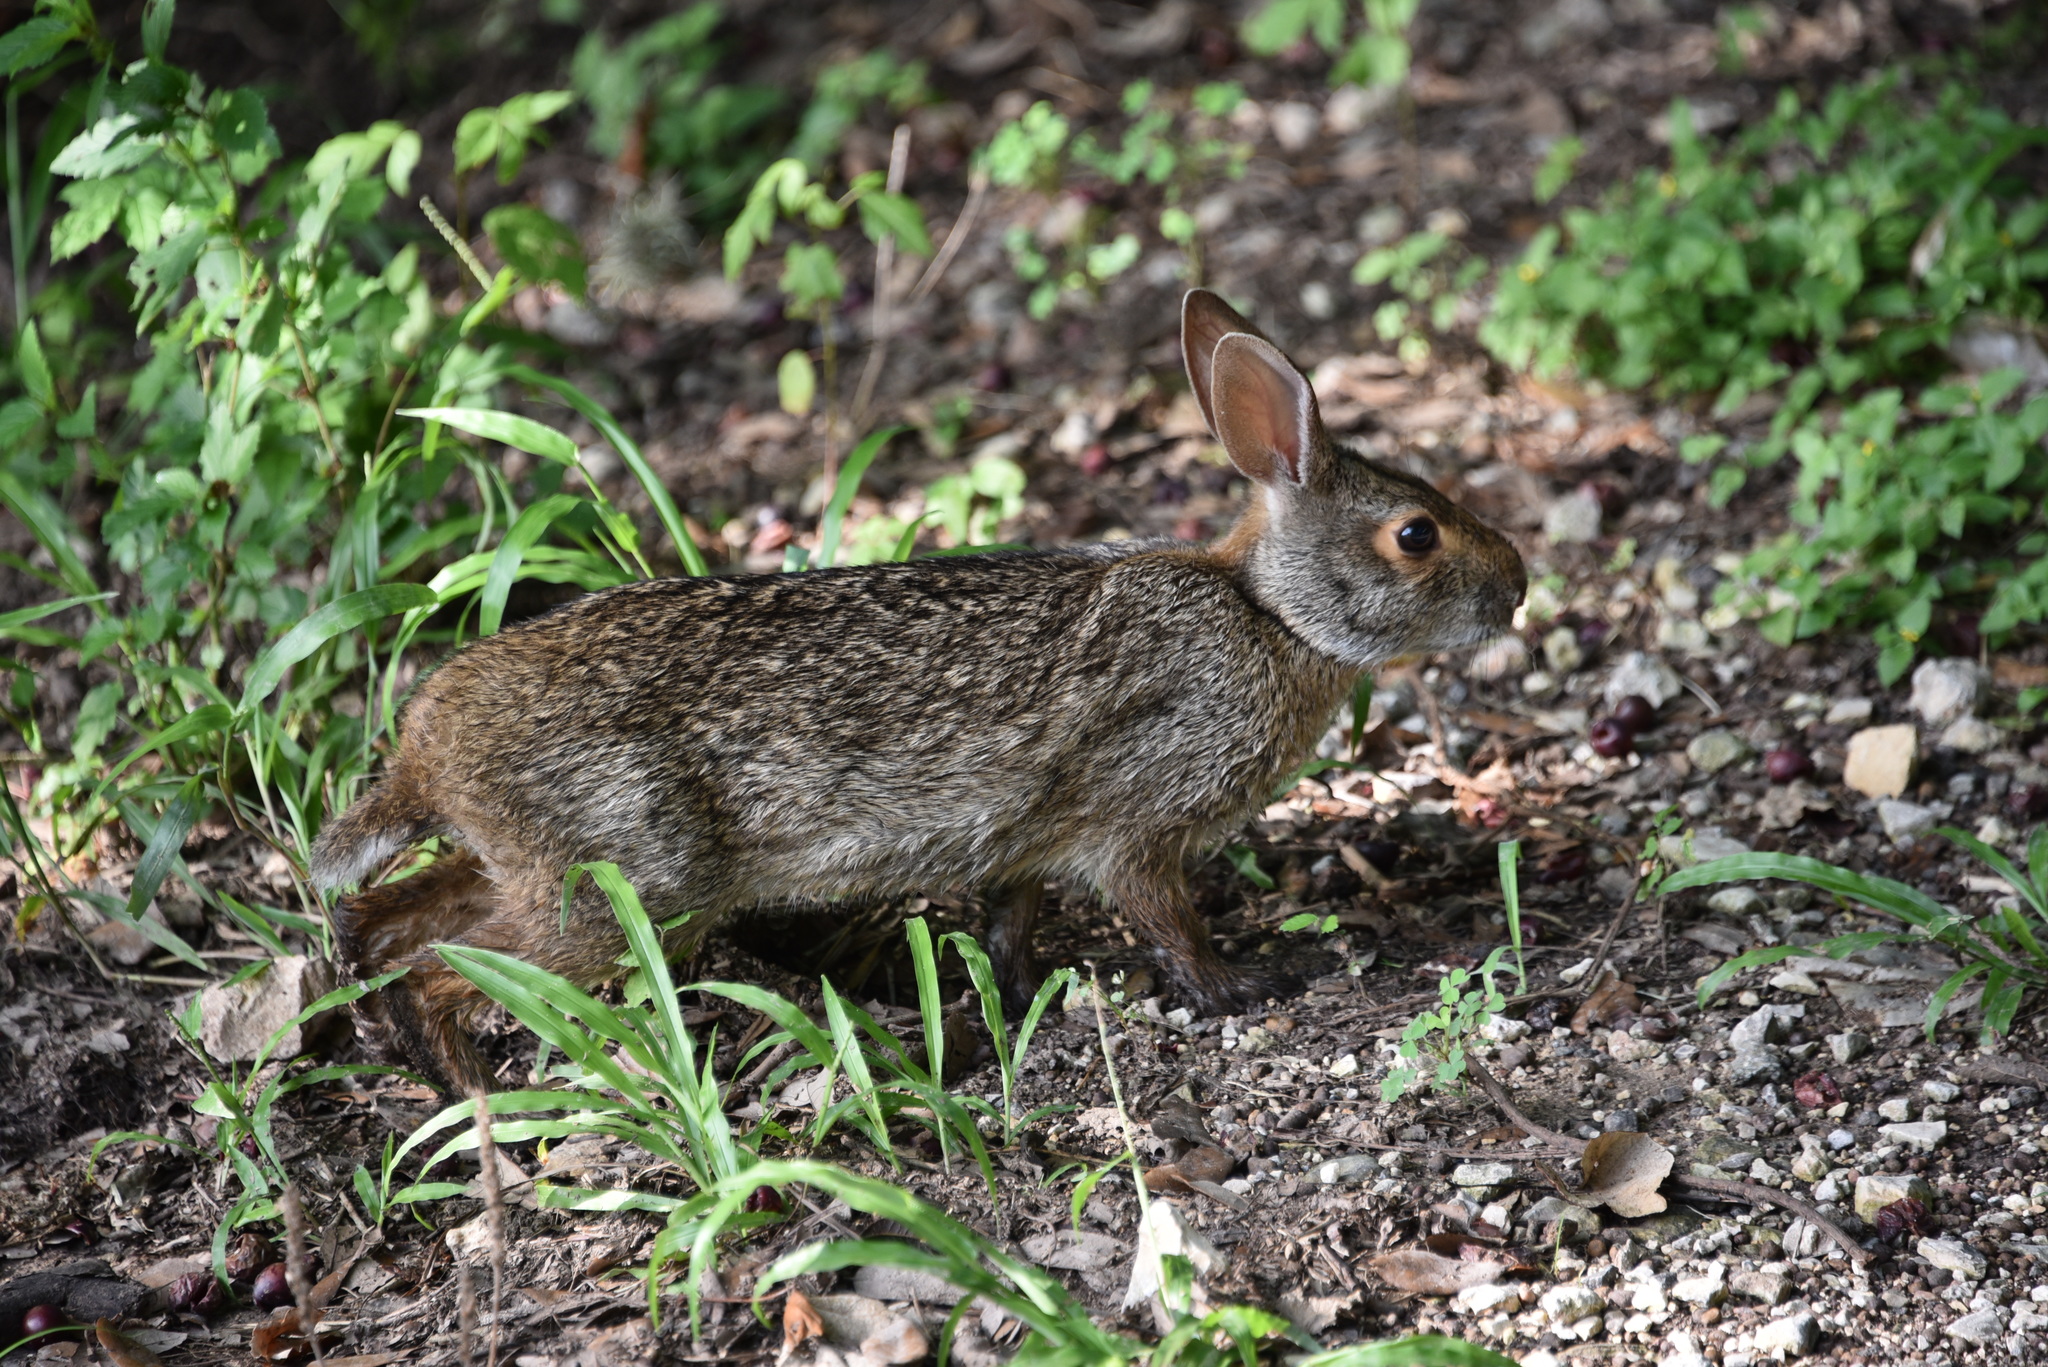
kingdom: Animalia
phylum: Chordata
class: Mammalia
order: Lagomorpha
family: Leporidae
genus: Sylvilagus
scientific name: Sylvilagus aquaticus
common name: Swamp rabbit
